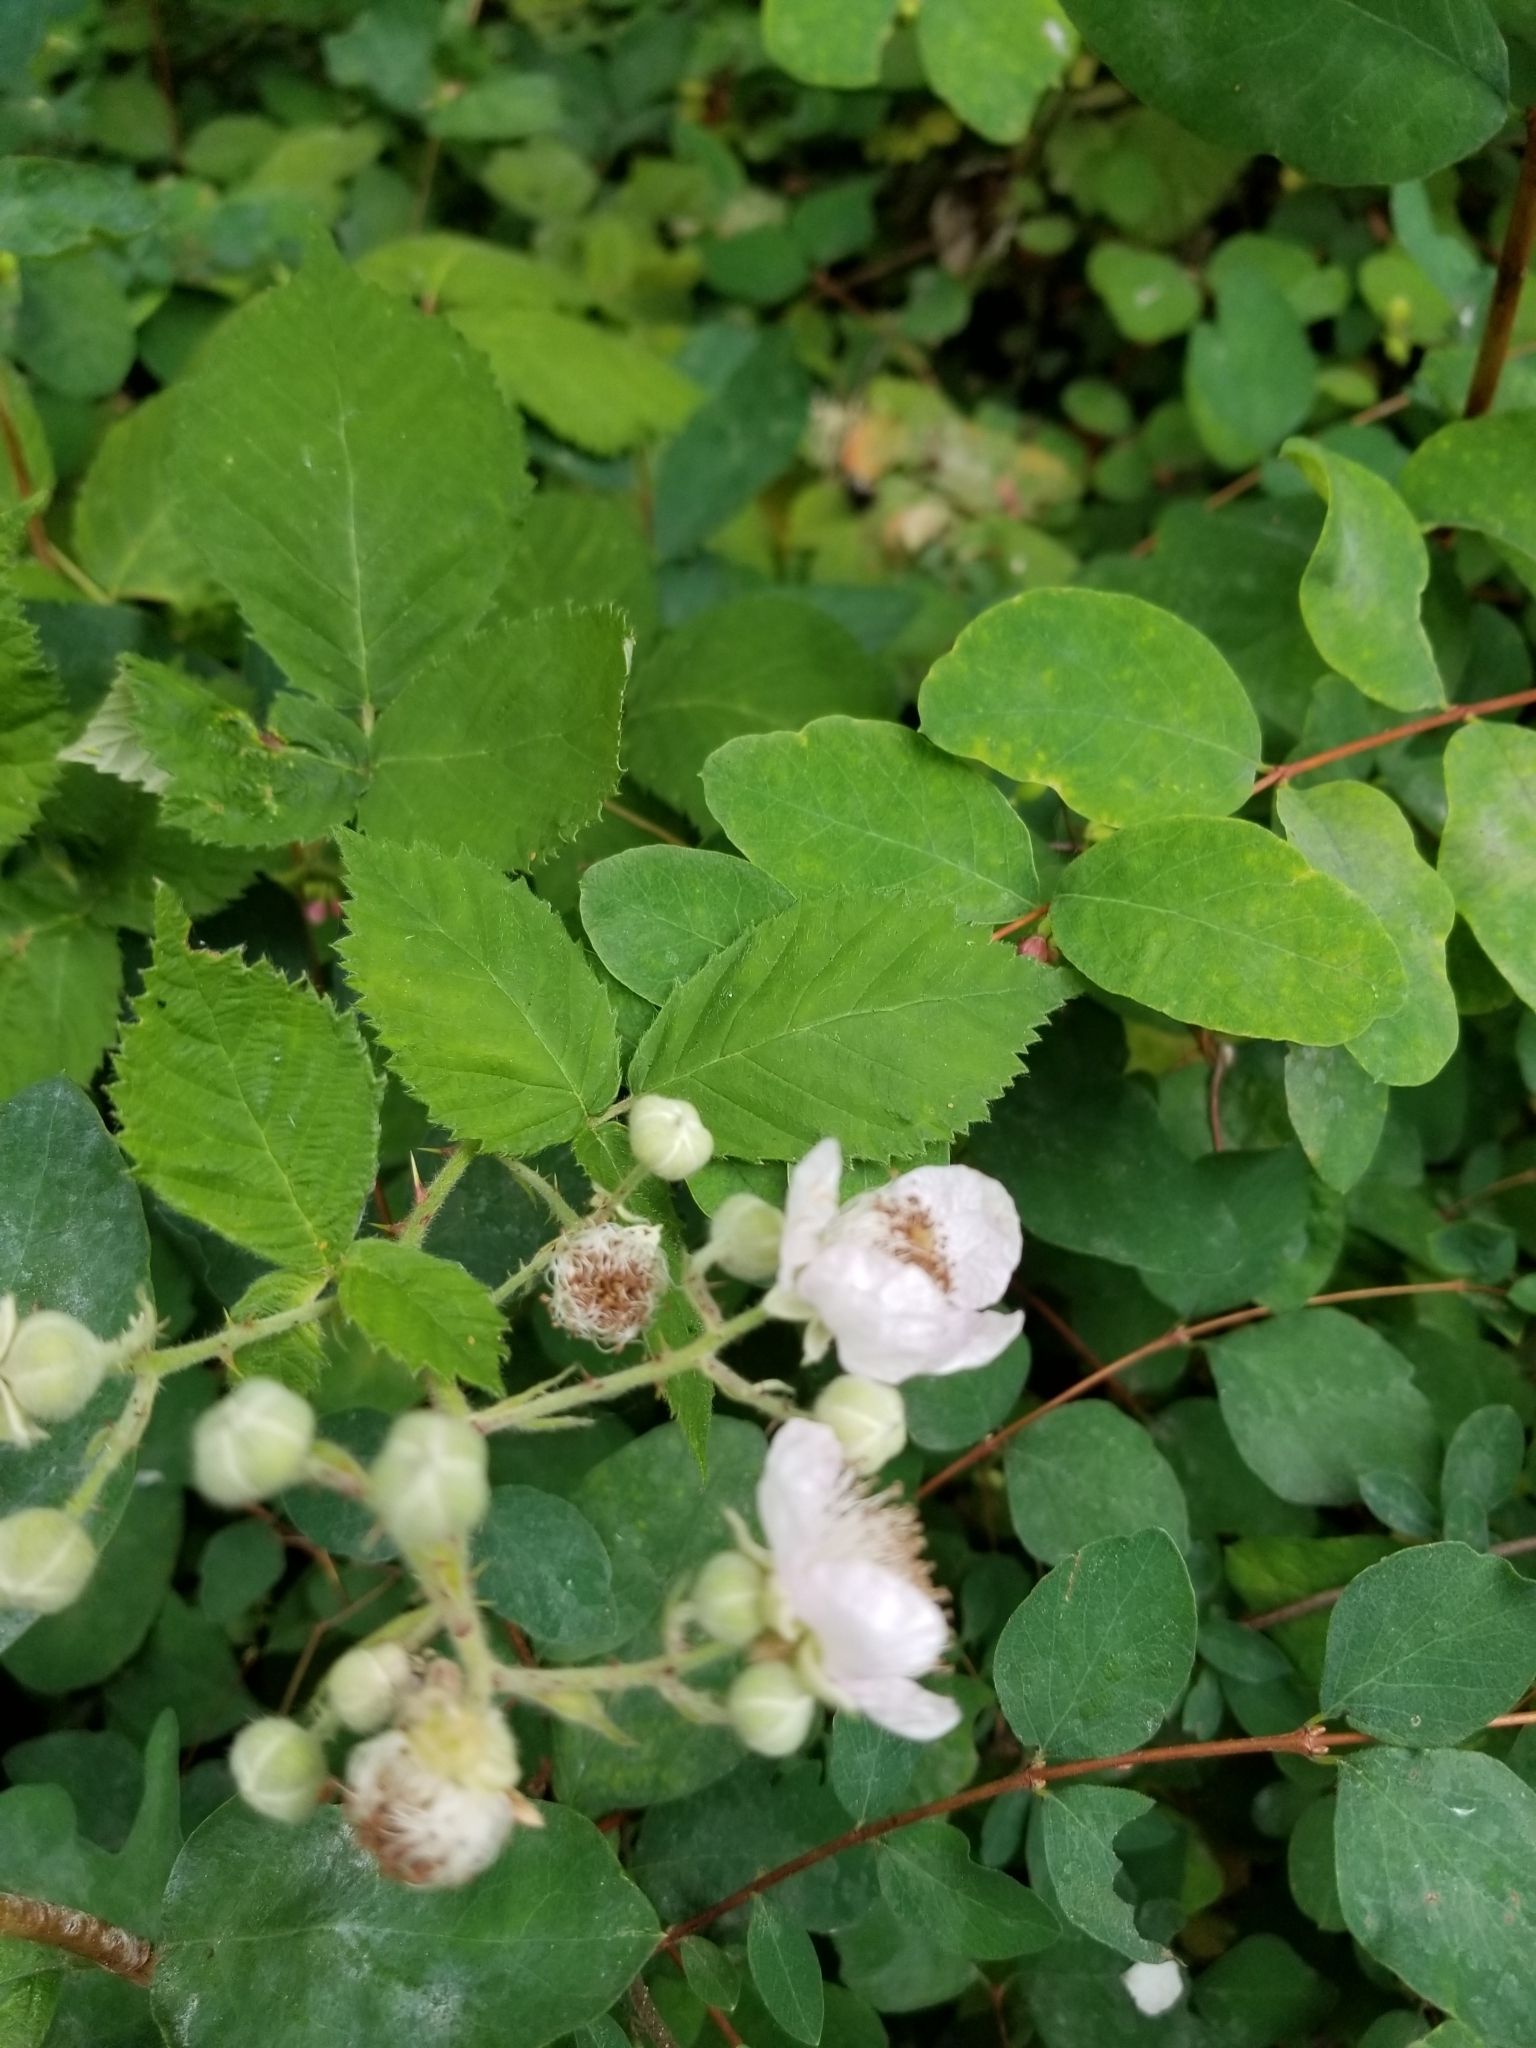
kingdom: Plantae
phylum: Tracheophyta
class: Magnoliopsida
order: Rosales
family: Rosaceae
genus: Rubus
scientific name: Rubus armeniacus
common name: Himalayan blackberry
